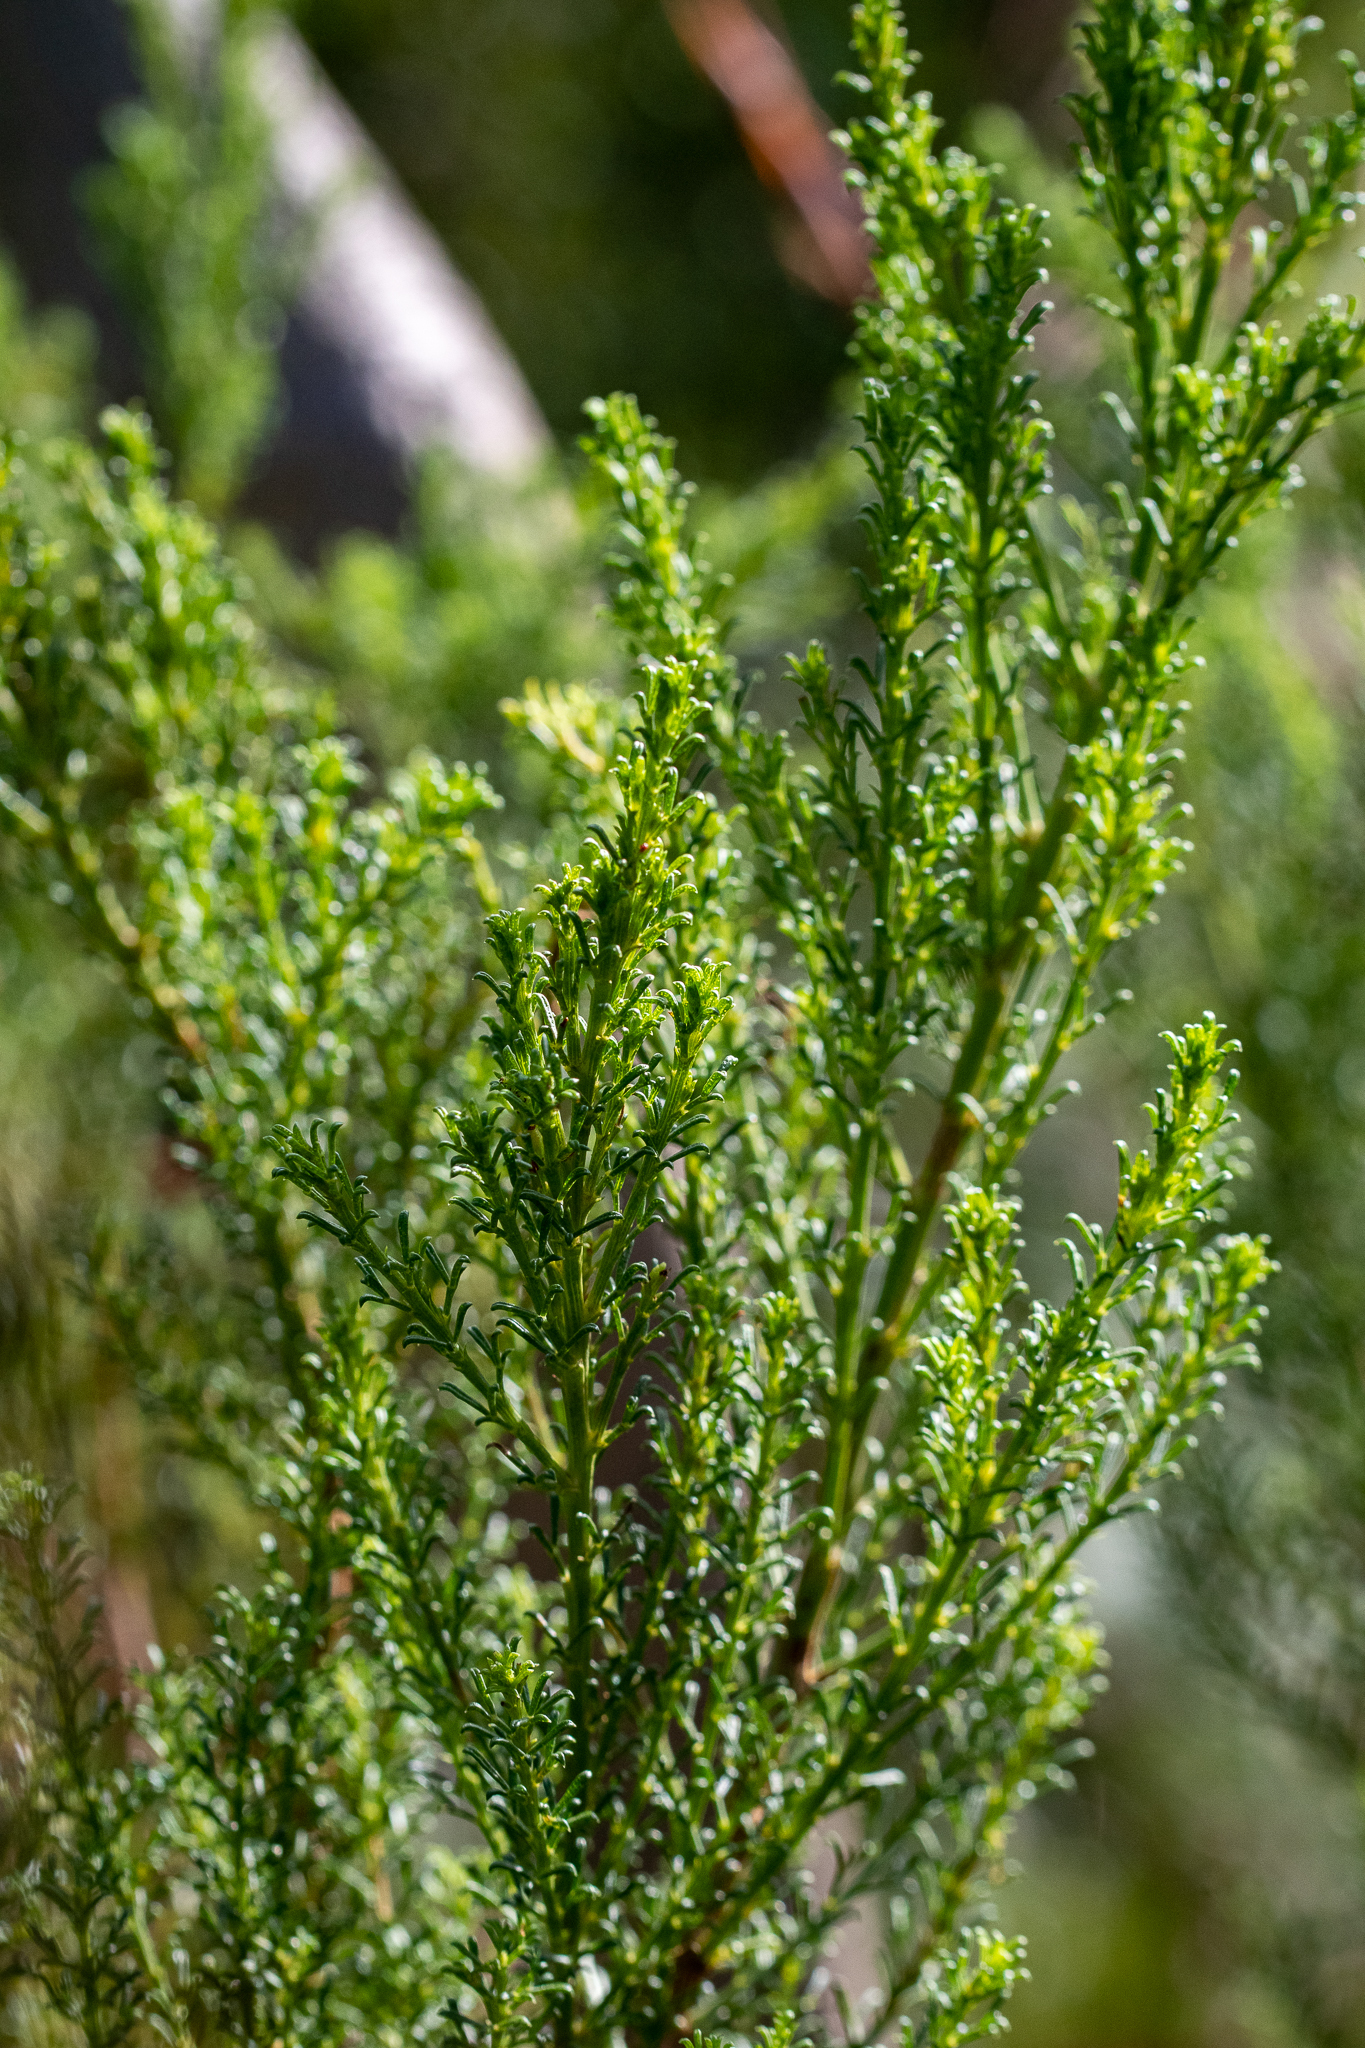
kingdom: Plantae
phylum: Tracheophyta
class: Magnoliopsida
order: Fabales
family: Fabaceae
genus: Psoralea
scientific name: Psoralea aculeata
